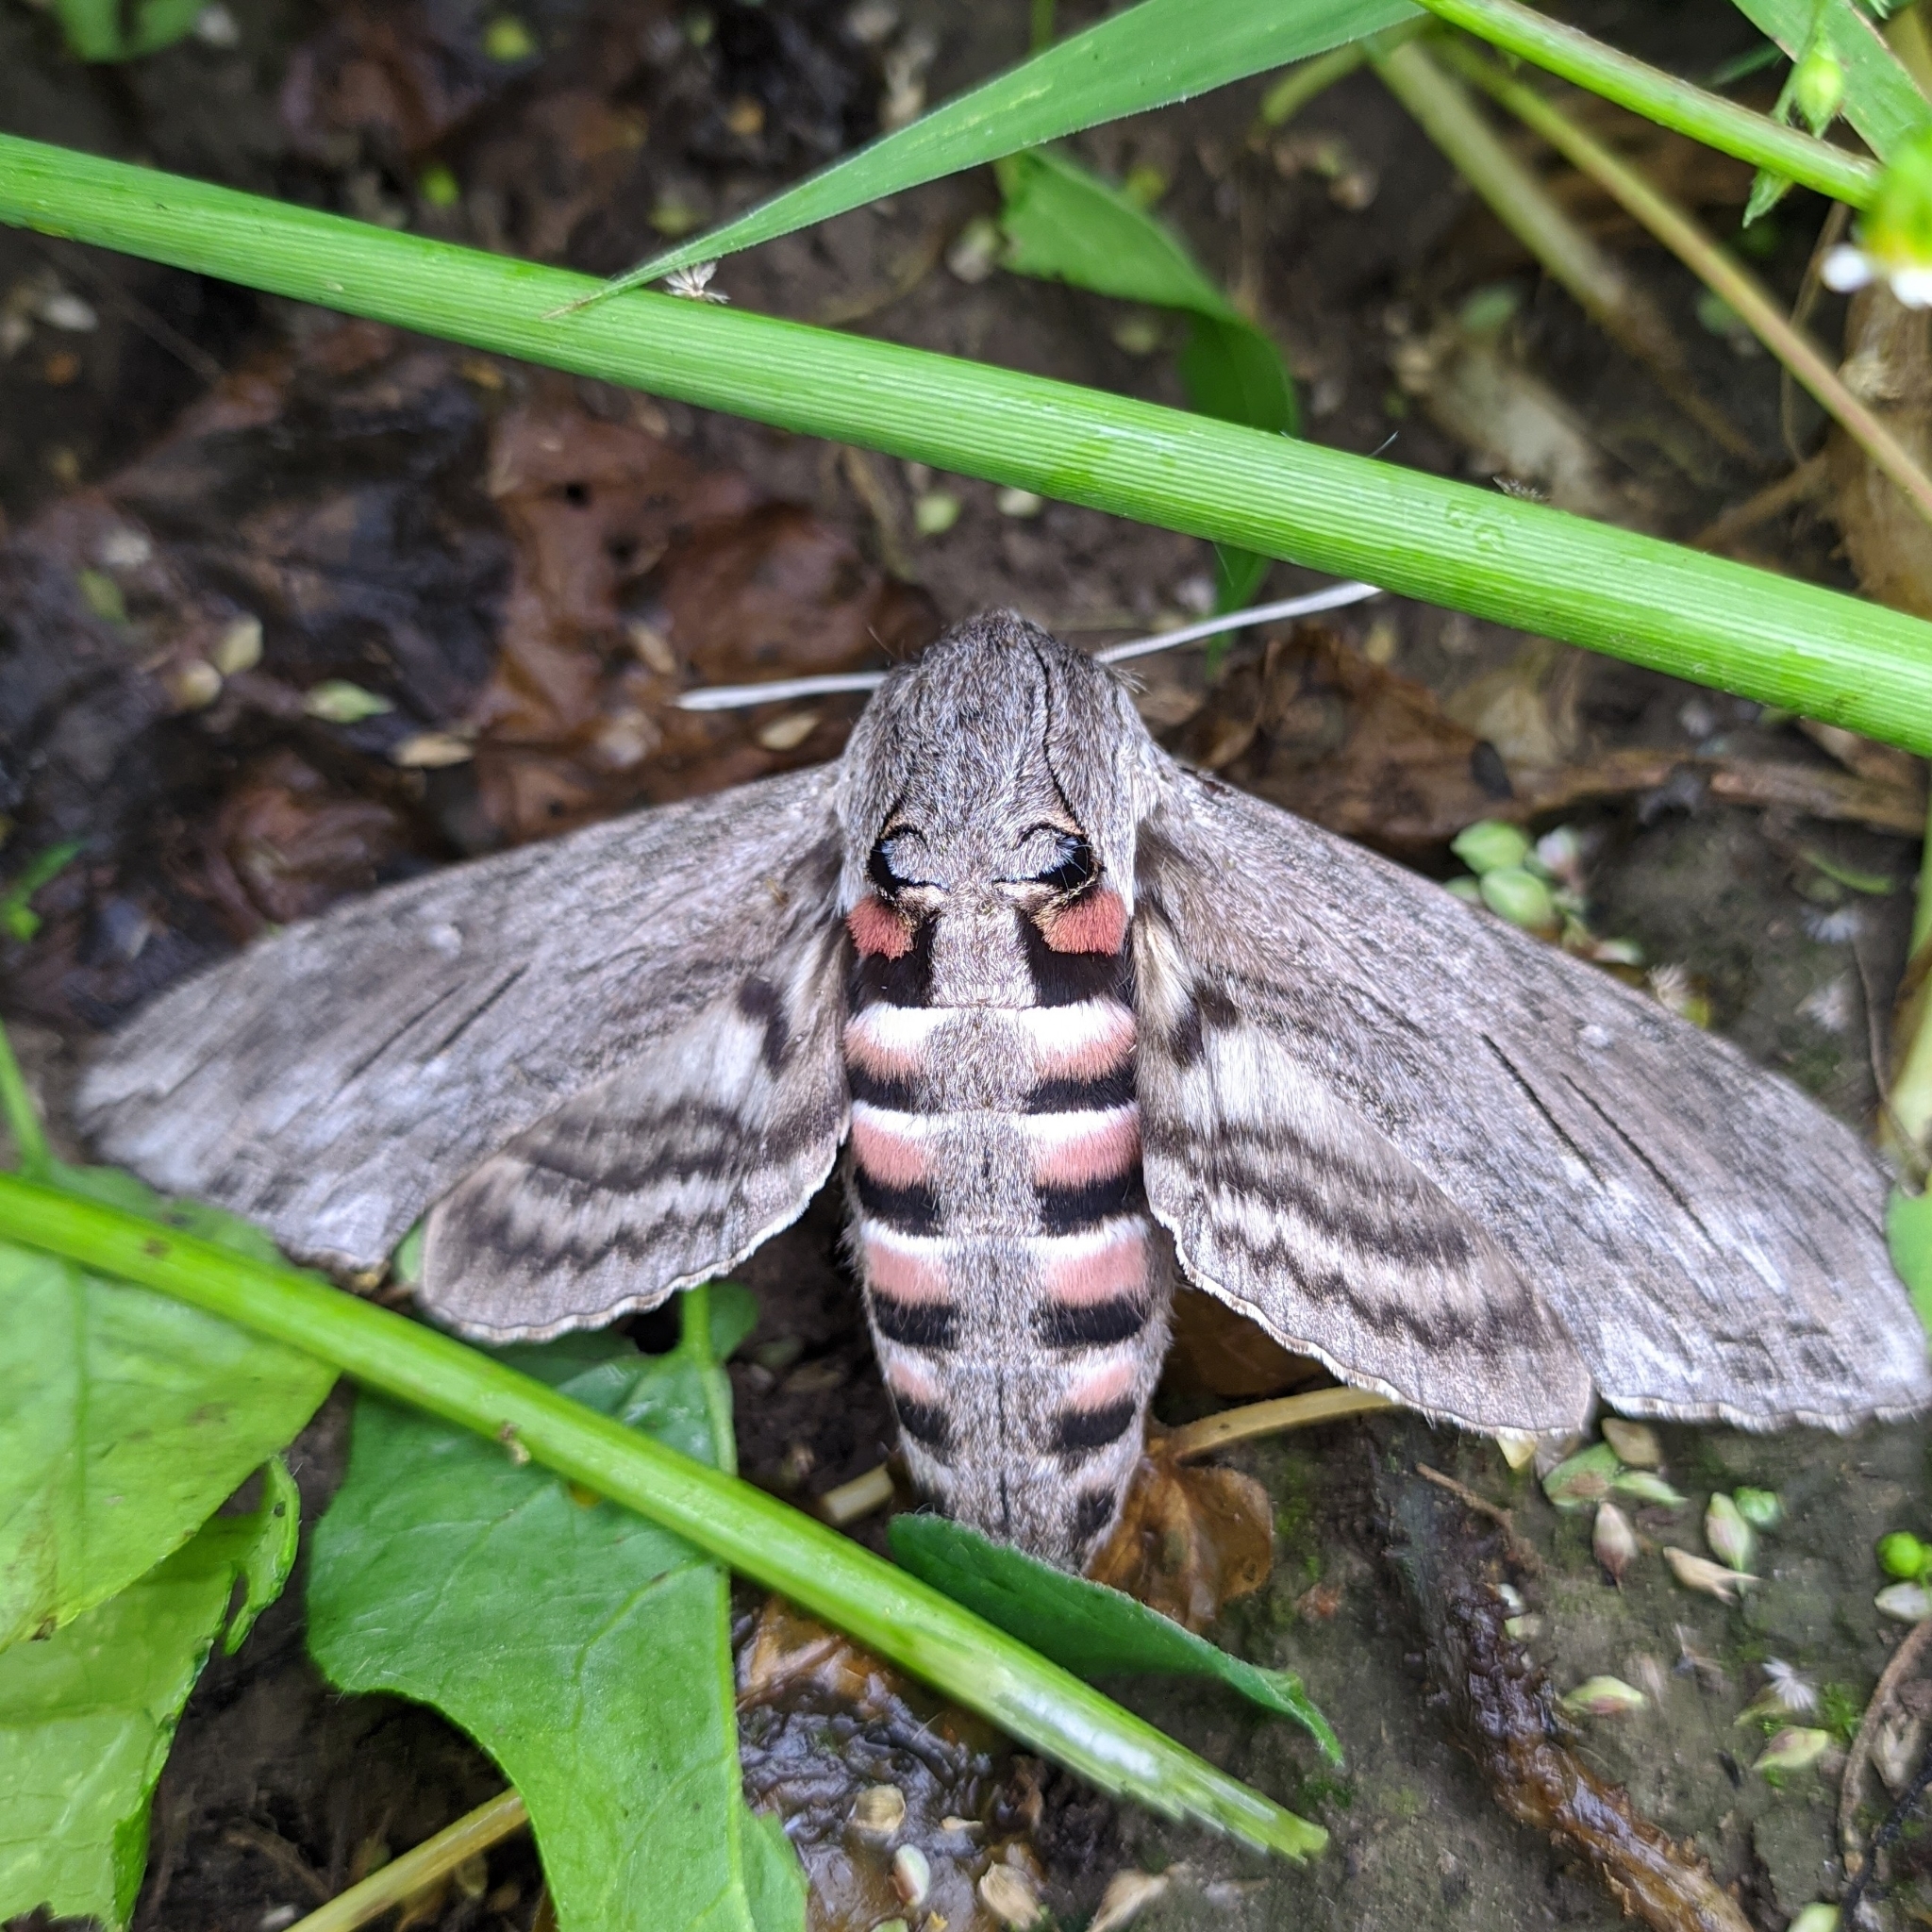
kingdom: Animalia
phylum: Arthropoda
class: Insecta
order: Lepidoptera
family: Sphingidae
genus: Agrius
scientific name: Agrius convolvuli
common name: Convolvulus hawkmoth
